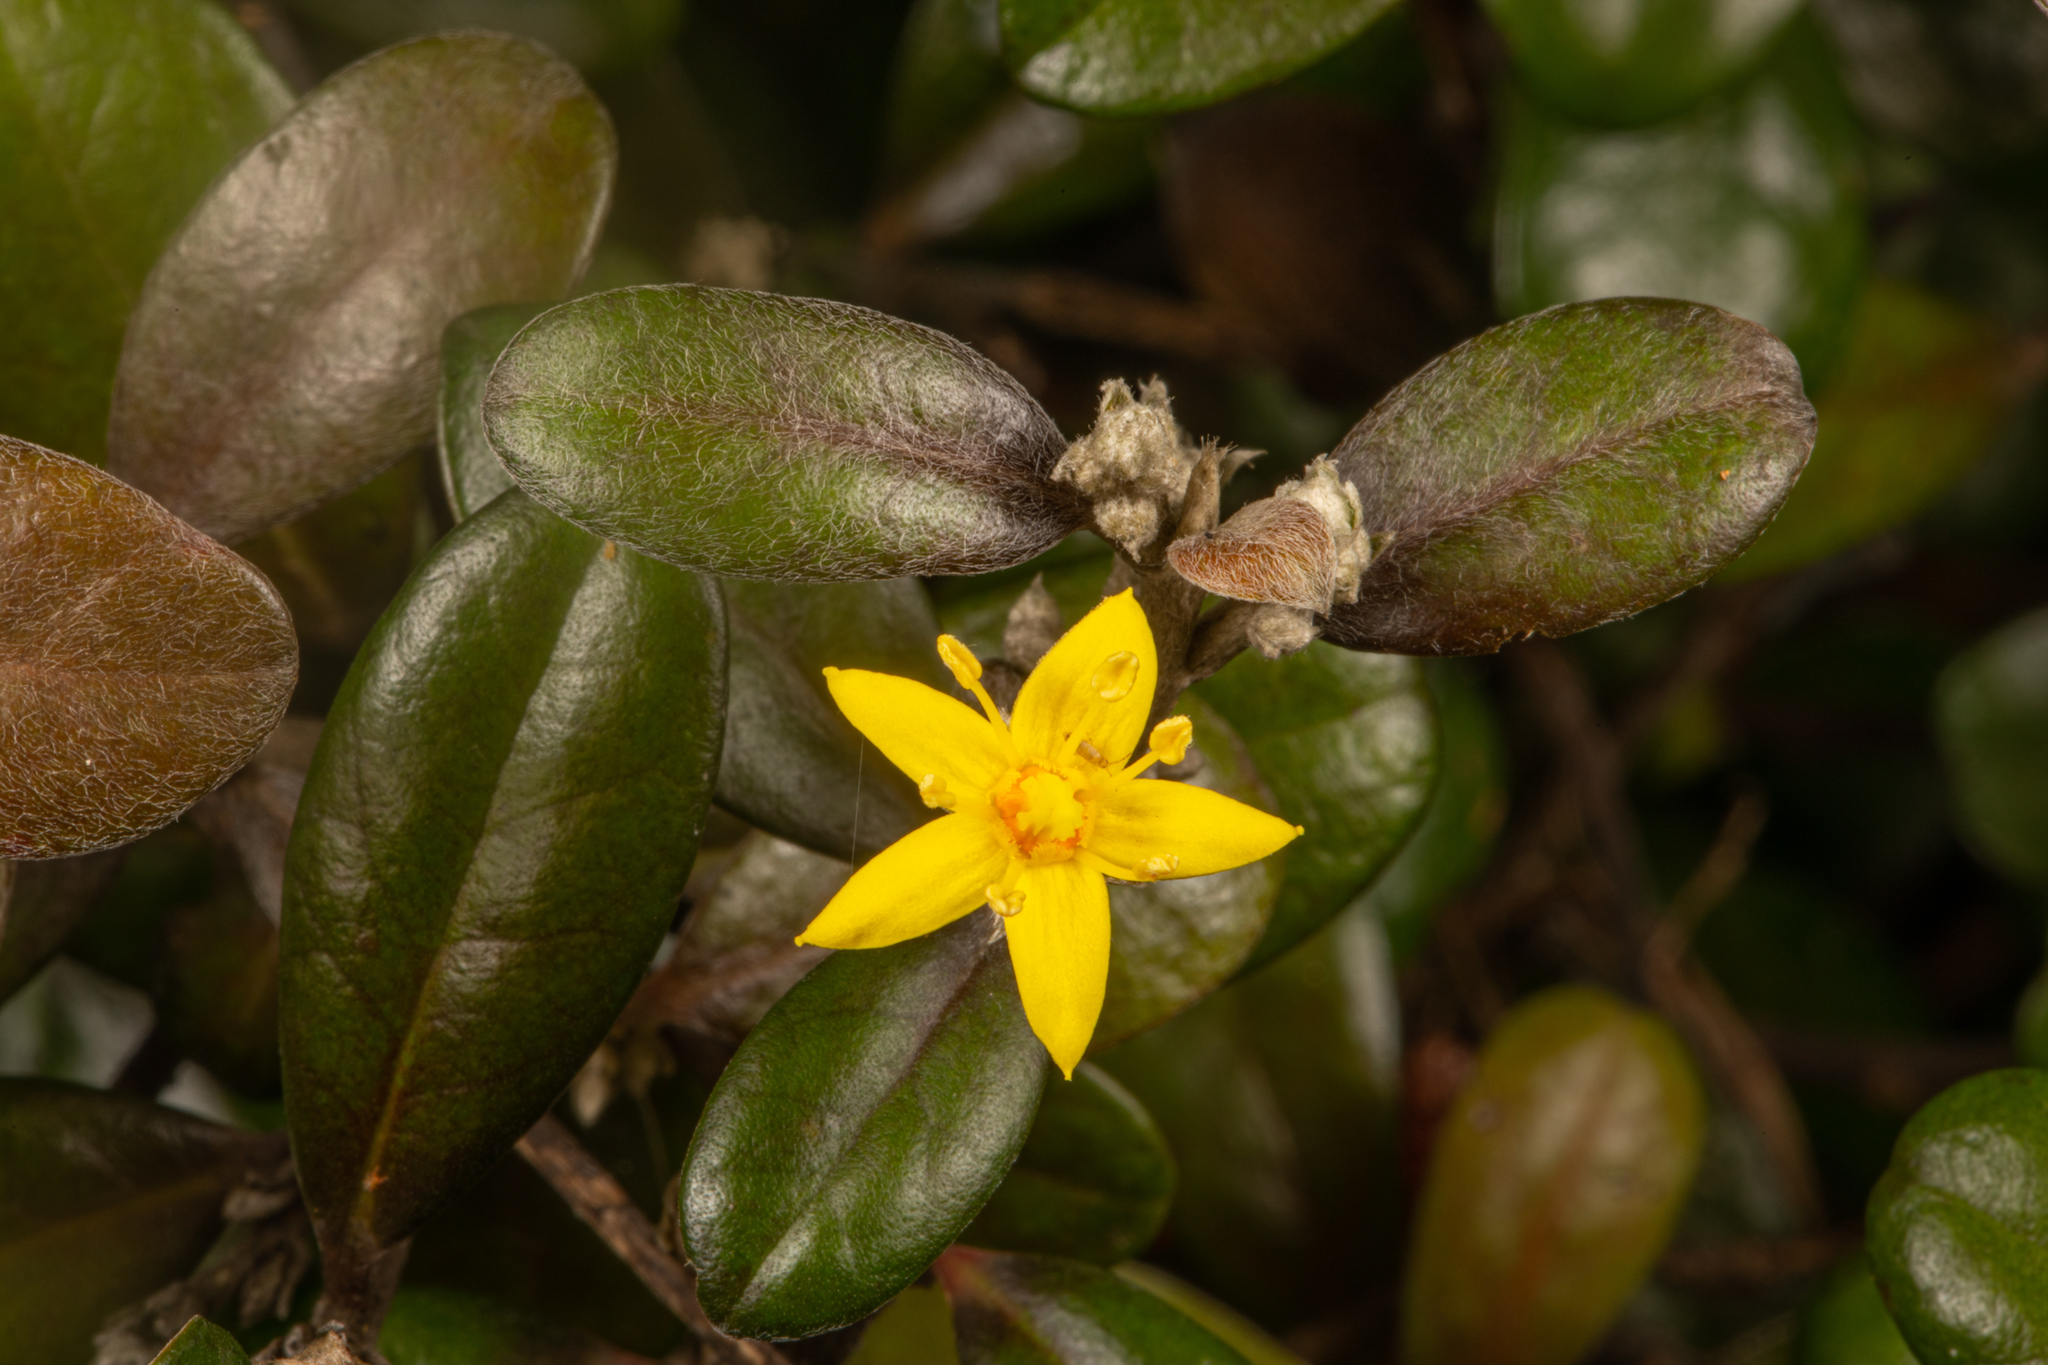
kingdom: Plantae
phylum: Tracheophyta
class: Magnoliopsida
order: Asterales
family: Argophyllaceae
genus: Corokia
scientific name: Corokia cotoneaster
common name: Wire nettingbush
